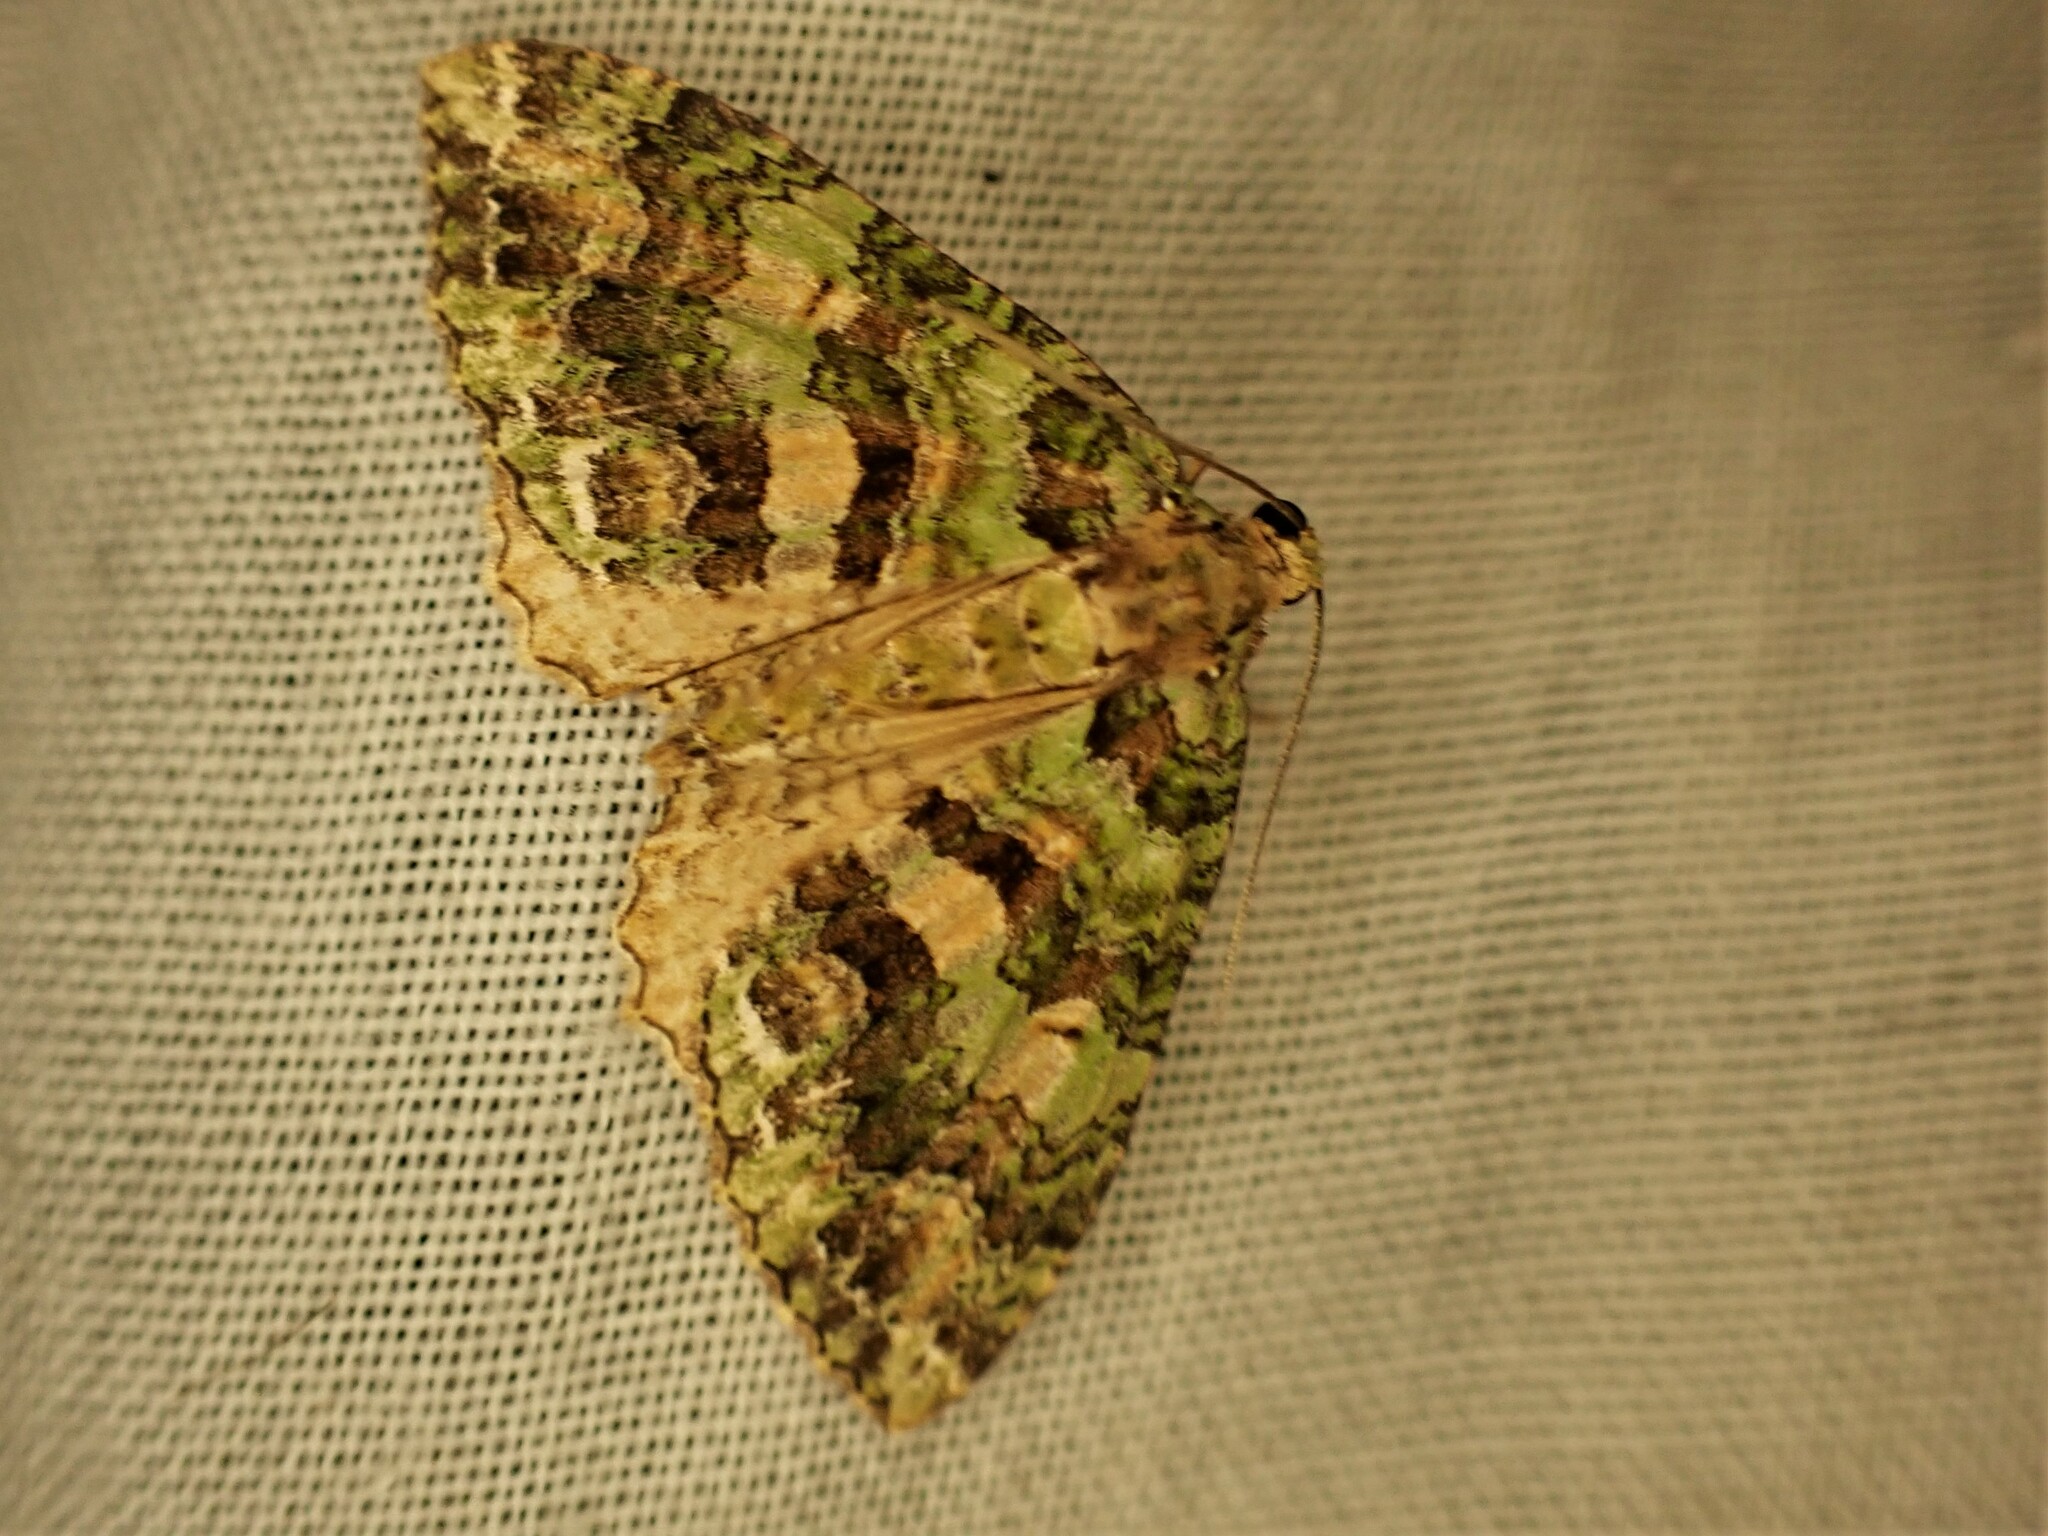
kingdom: Animalia
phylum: Arthropoda
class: Insecta
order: Lepidoptera
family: Geometridae
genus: Austrocidaria
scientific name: Austrocidaria similata
